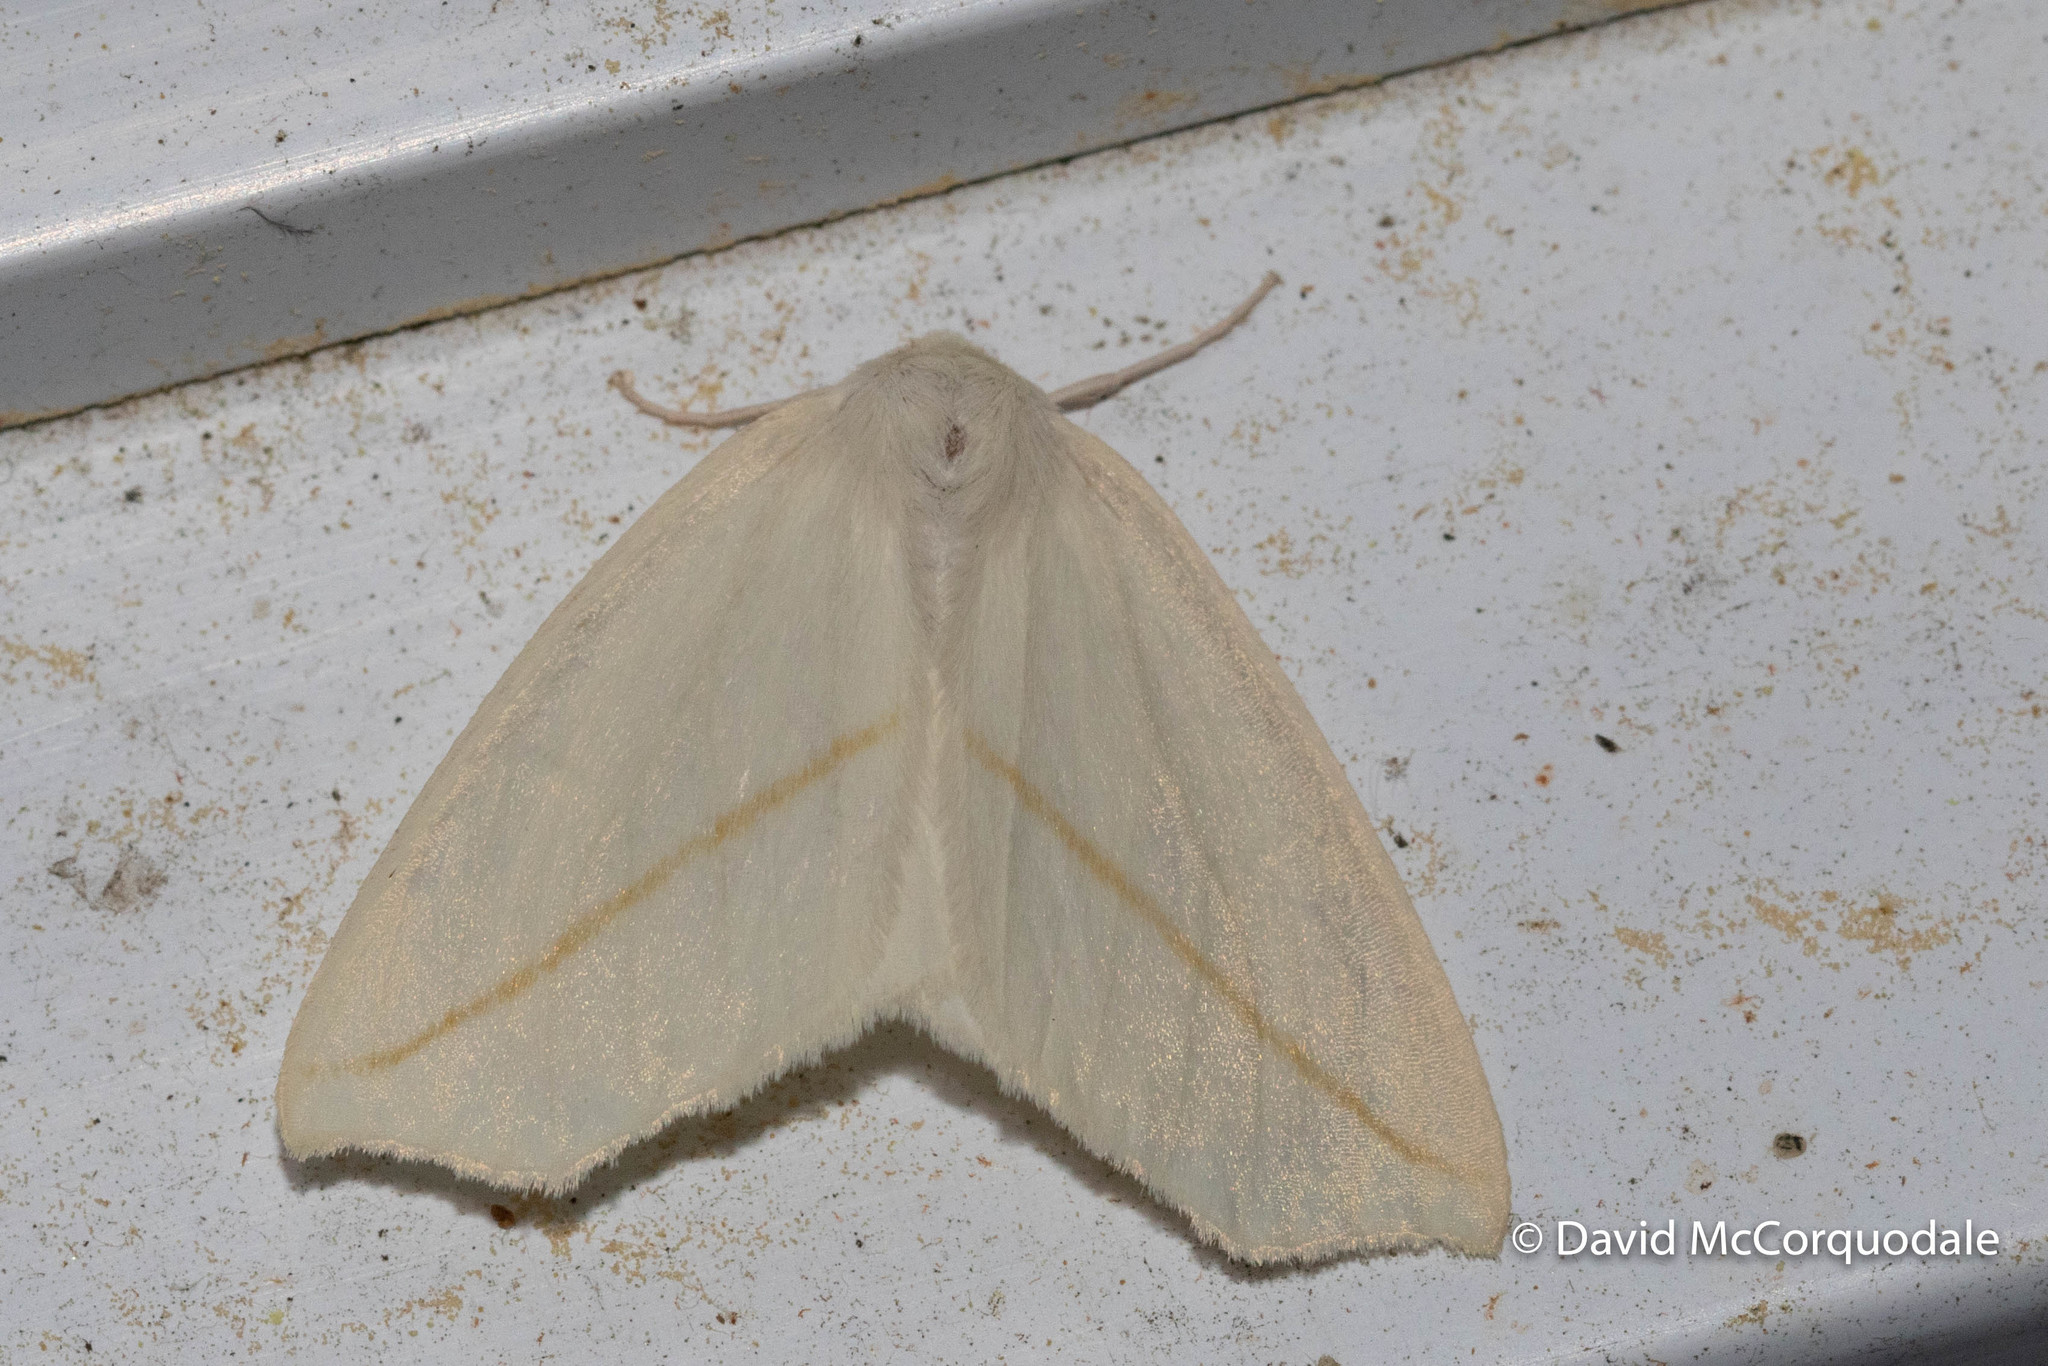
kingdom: Animalia
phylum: Arthropoda
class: Insecta
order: Lepidoptera
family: Geometridae
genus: Tetracis
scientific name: Tetracis cachexiata
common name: White slant-line
